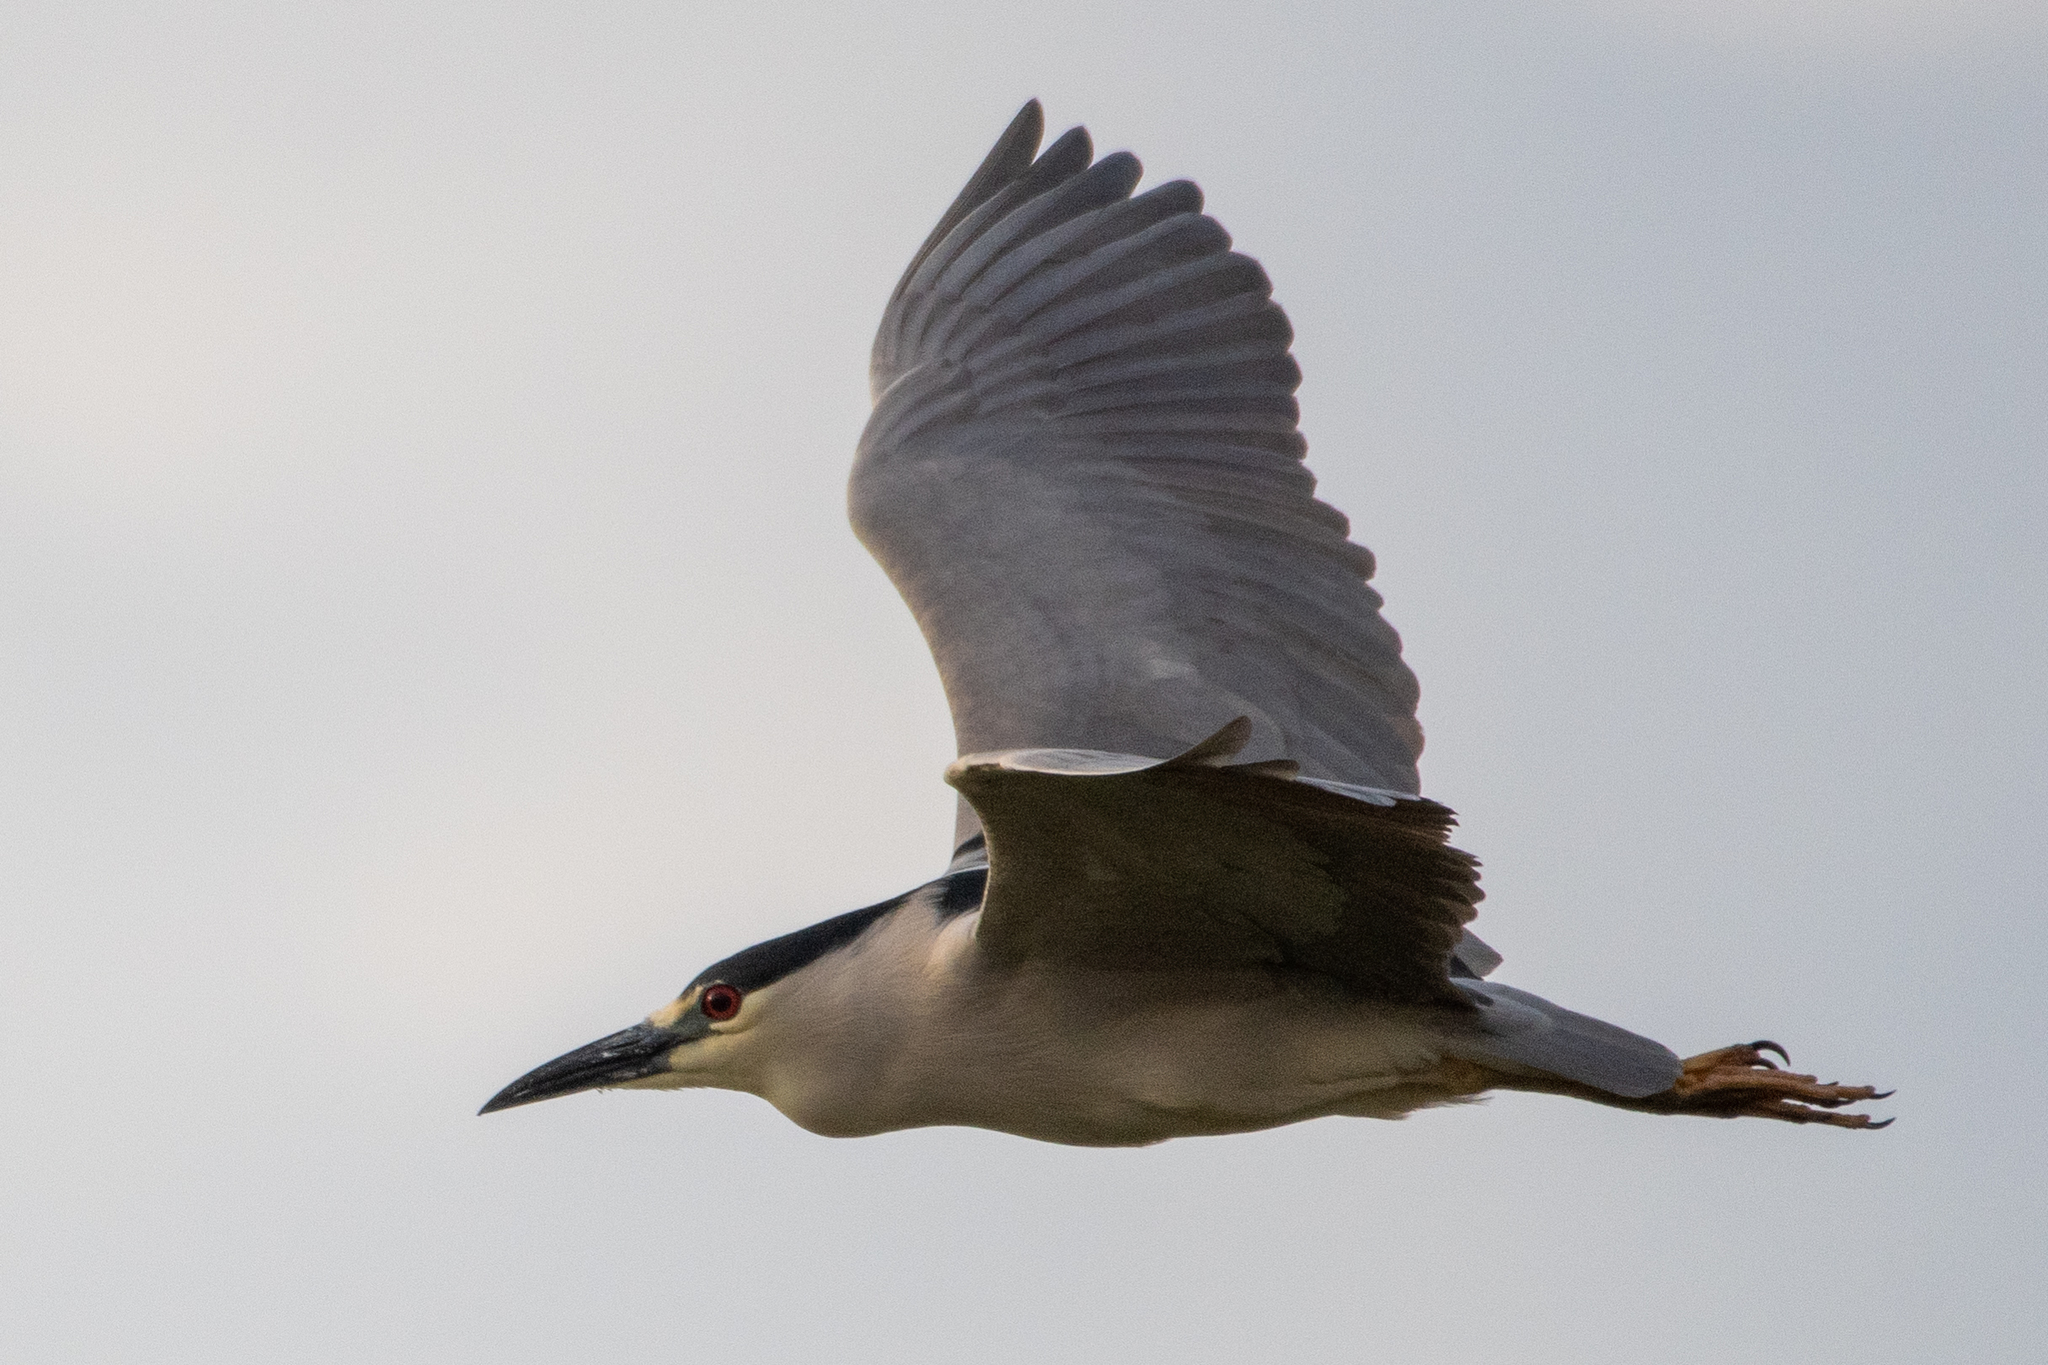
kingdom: Animalia
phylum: Chordata
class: Aves
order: Pelecaniformes
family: Ardeidae
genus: Nycticorax
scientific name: Nycticorax nycticorax
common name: Black-crowned night heron
